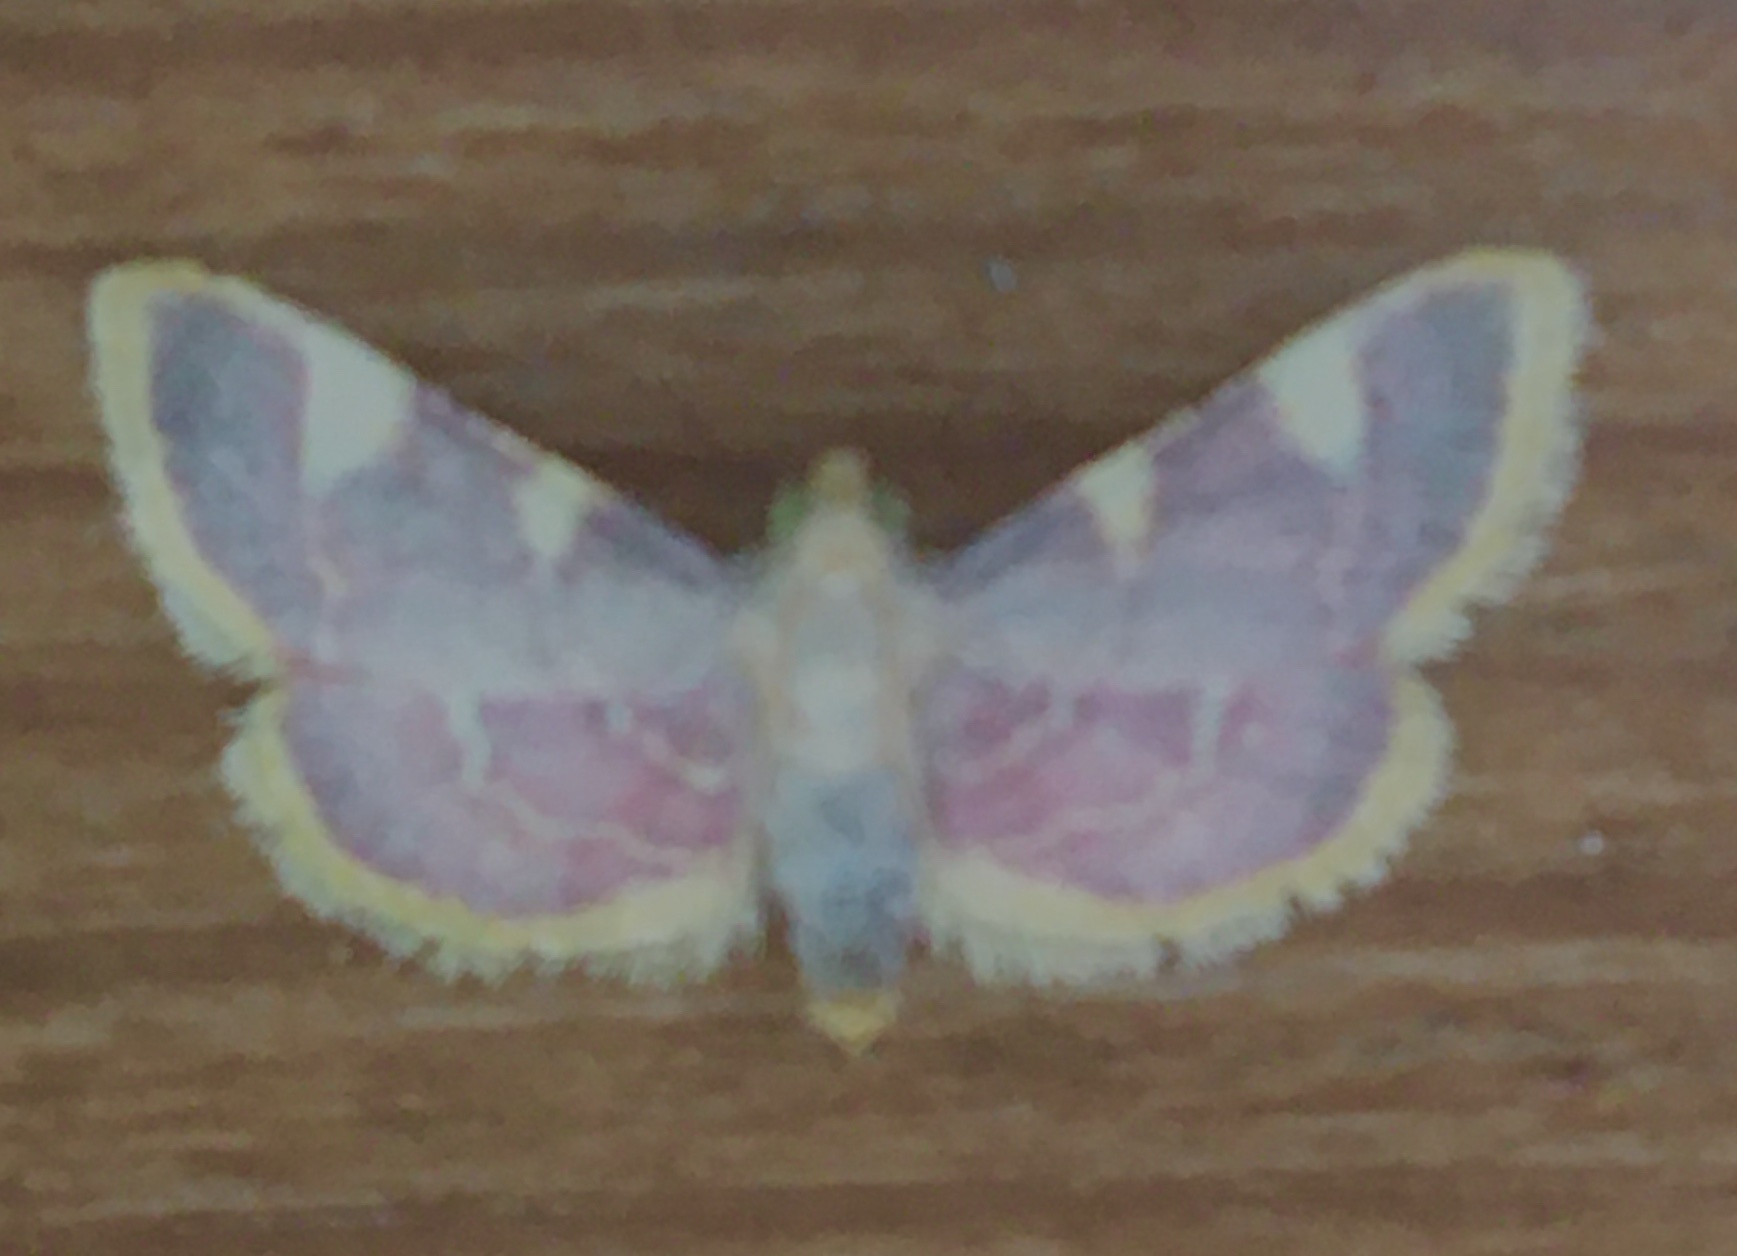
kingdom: Animalia
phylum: Arthropoda
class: Insecta
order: Lepidoptera
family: Pyralidae
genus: Hypsopygia
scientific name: Hypsopygia costalis
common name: Gold triangle
